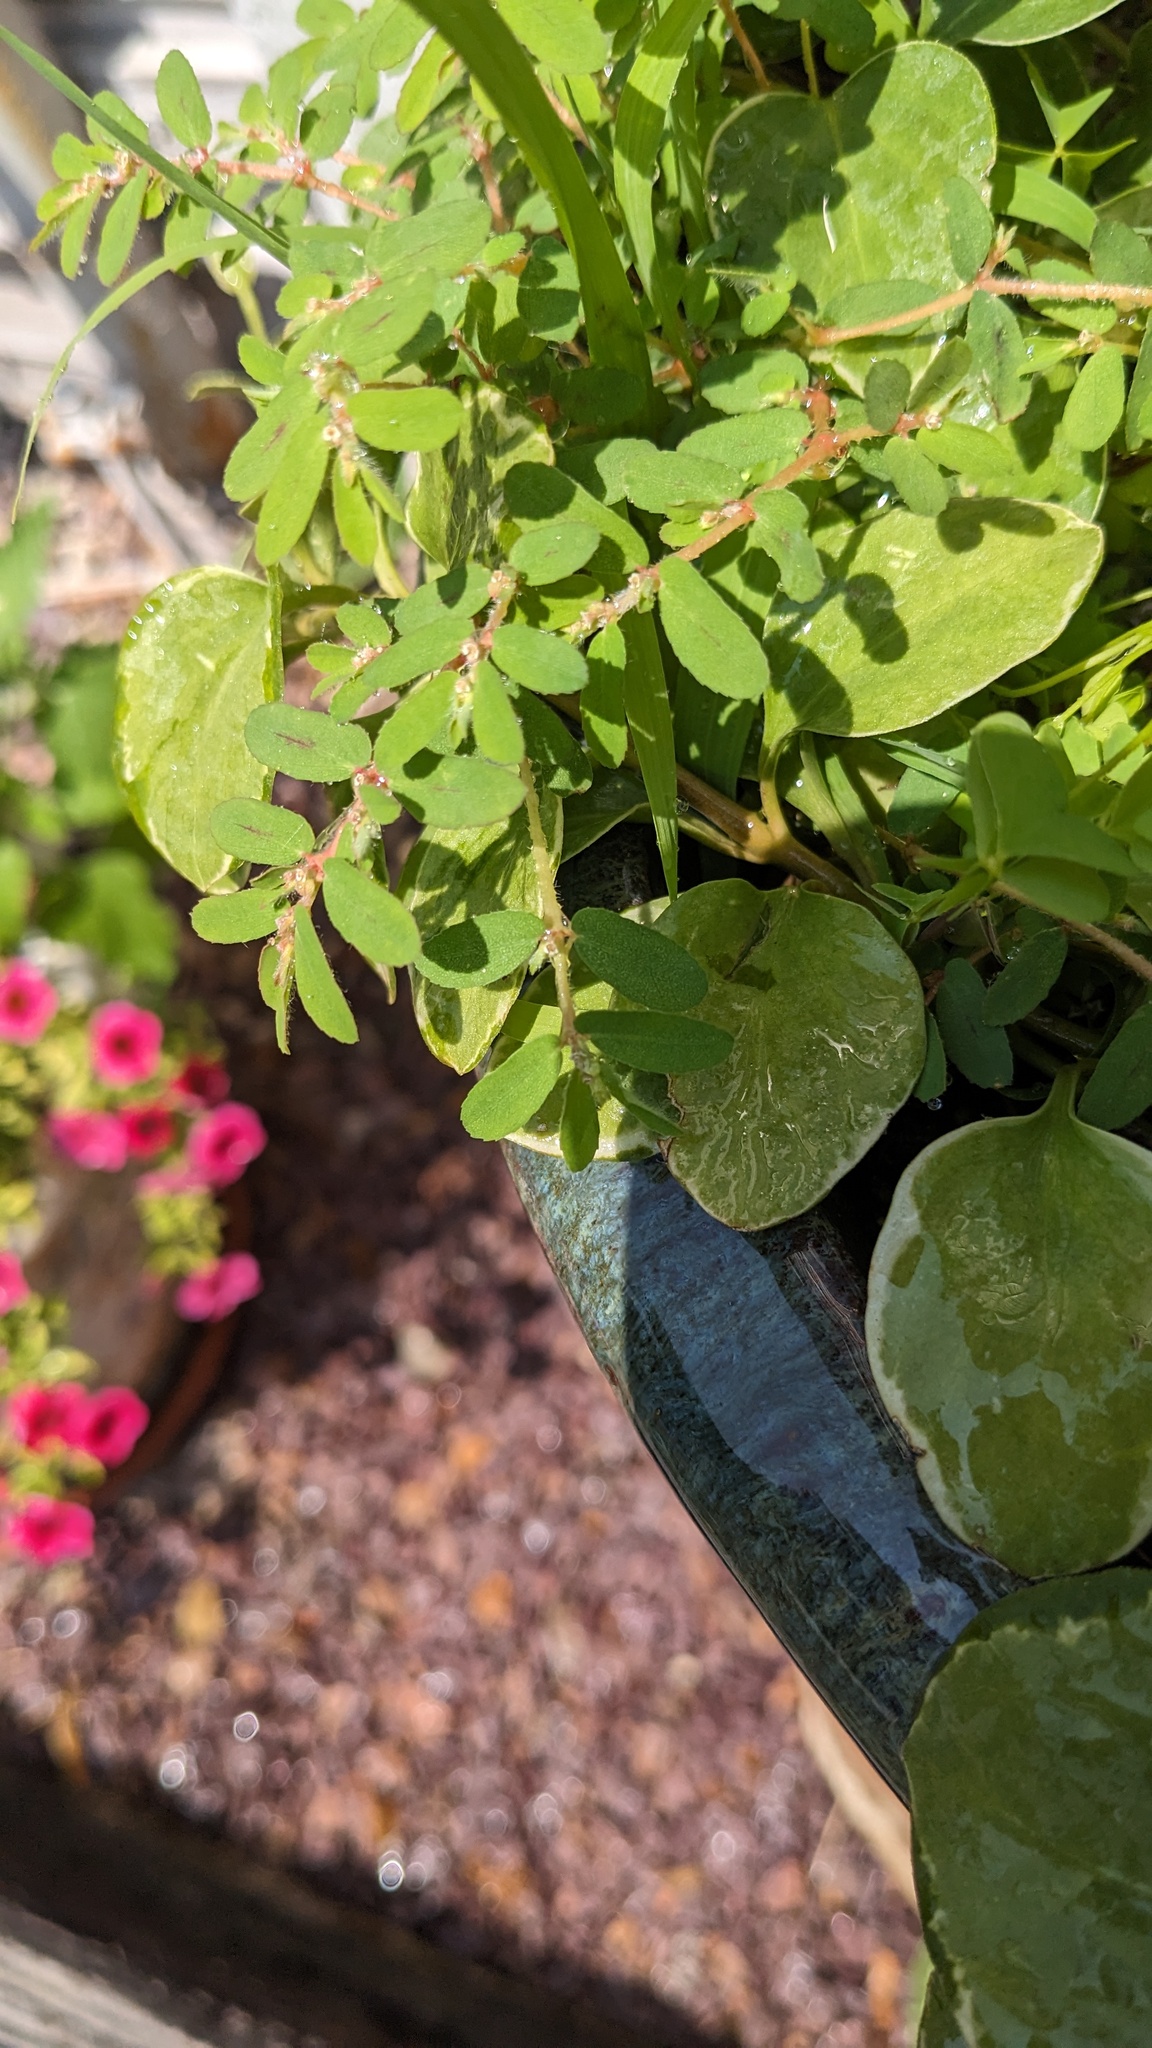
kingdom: Plantae
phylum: Tracheophyta
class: Magnoliopsida
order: Malpighiales
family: Euphorbiaceae
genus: Euphorbia
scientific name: Euphorbia maculata
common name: Spotted spurge
